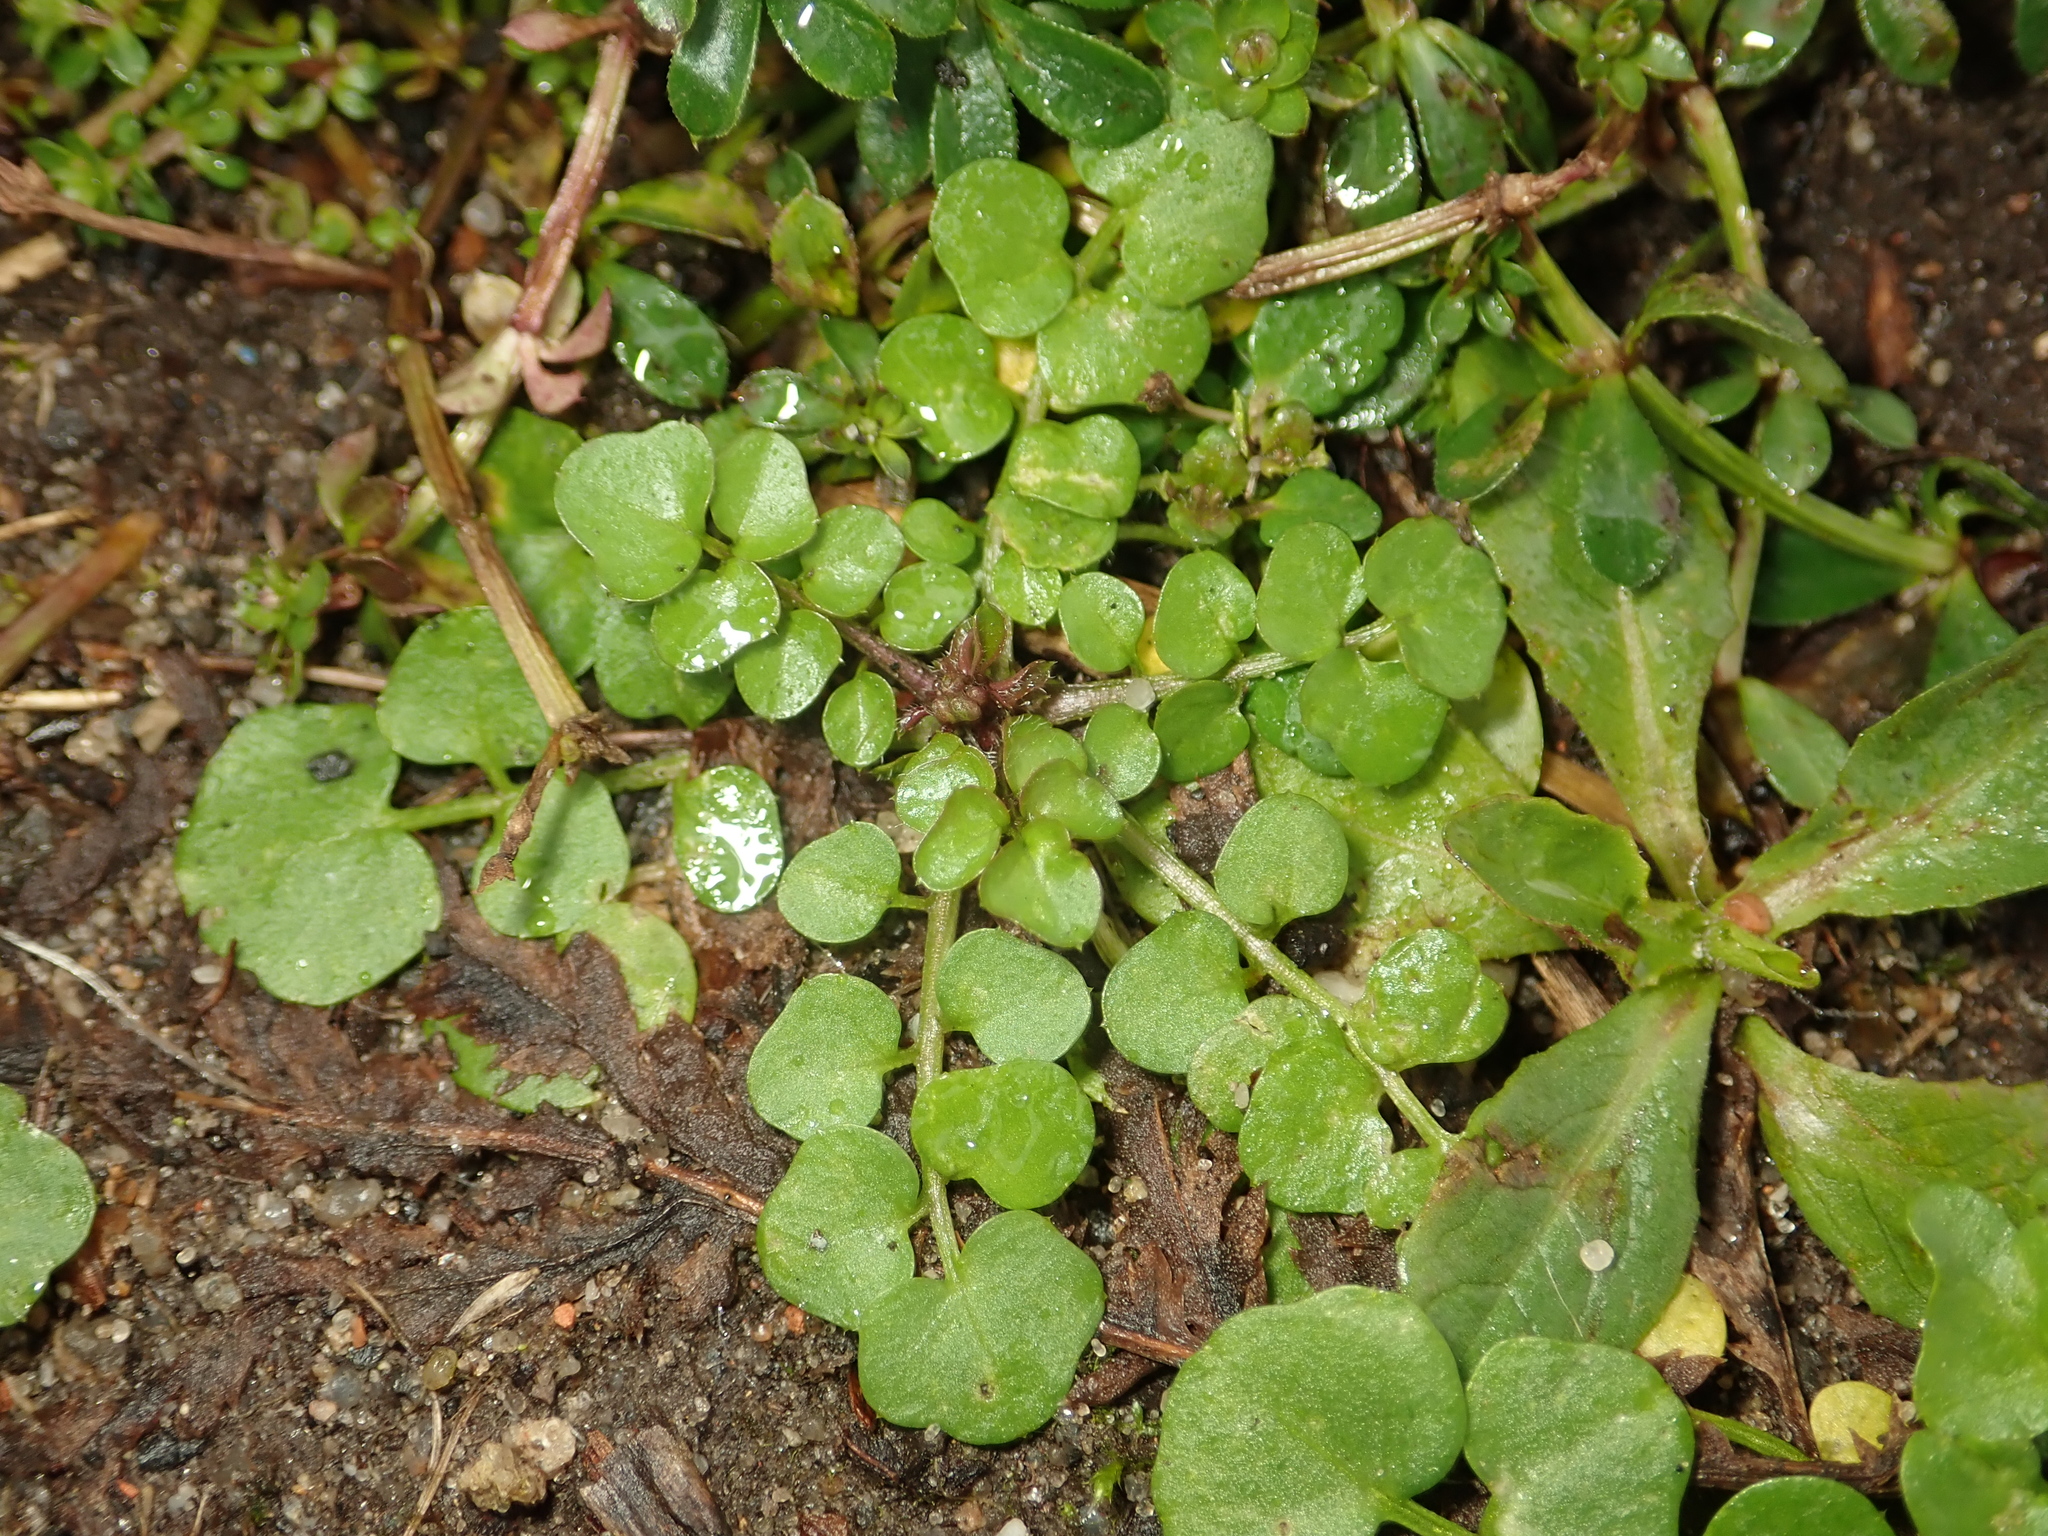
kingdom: Plantae
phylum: Tracheophyta
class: Magnoliopsida
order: Brassicales
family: Brassicaceae
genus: Cardamine
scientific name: Cardamine hirsuta
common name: Hairy bittercress
